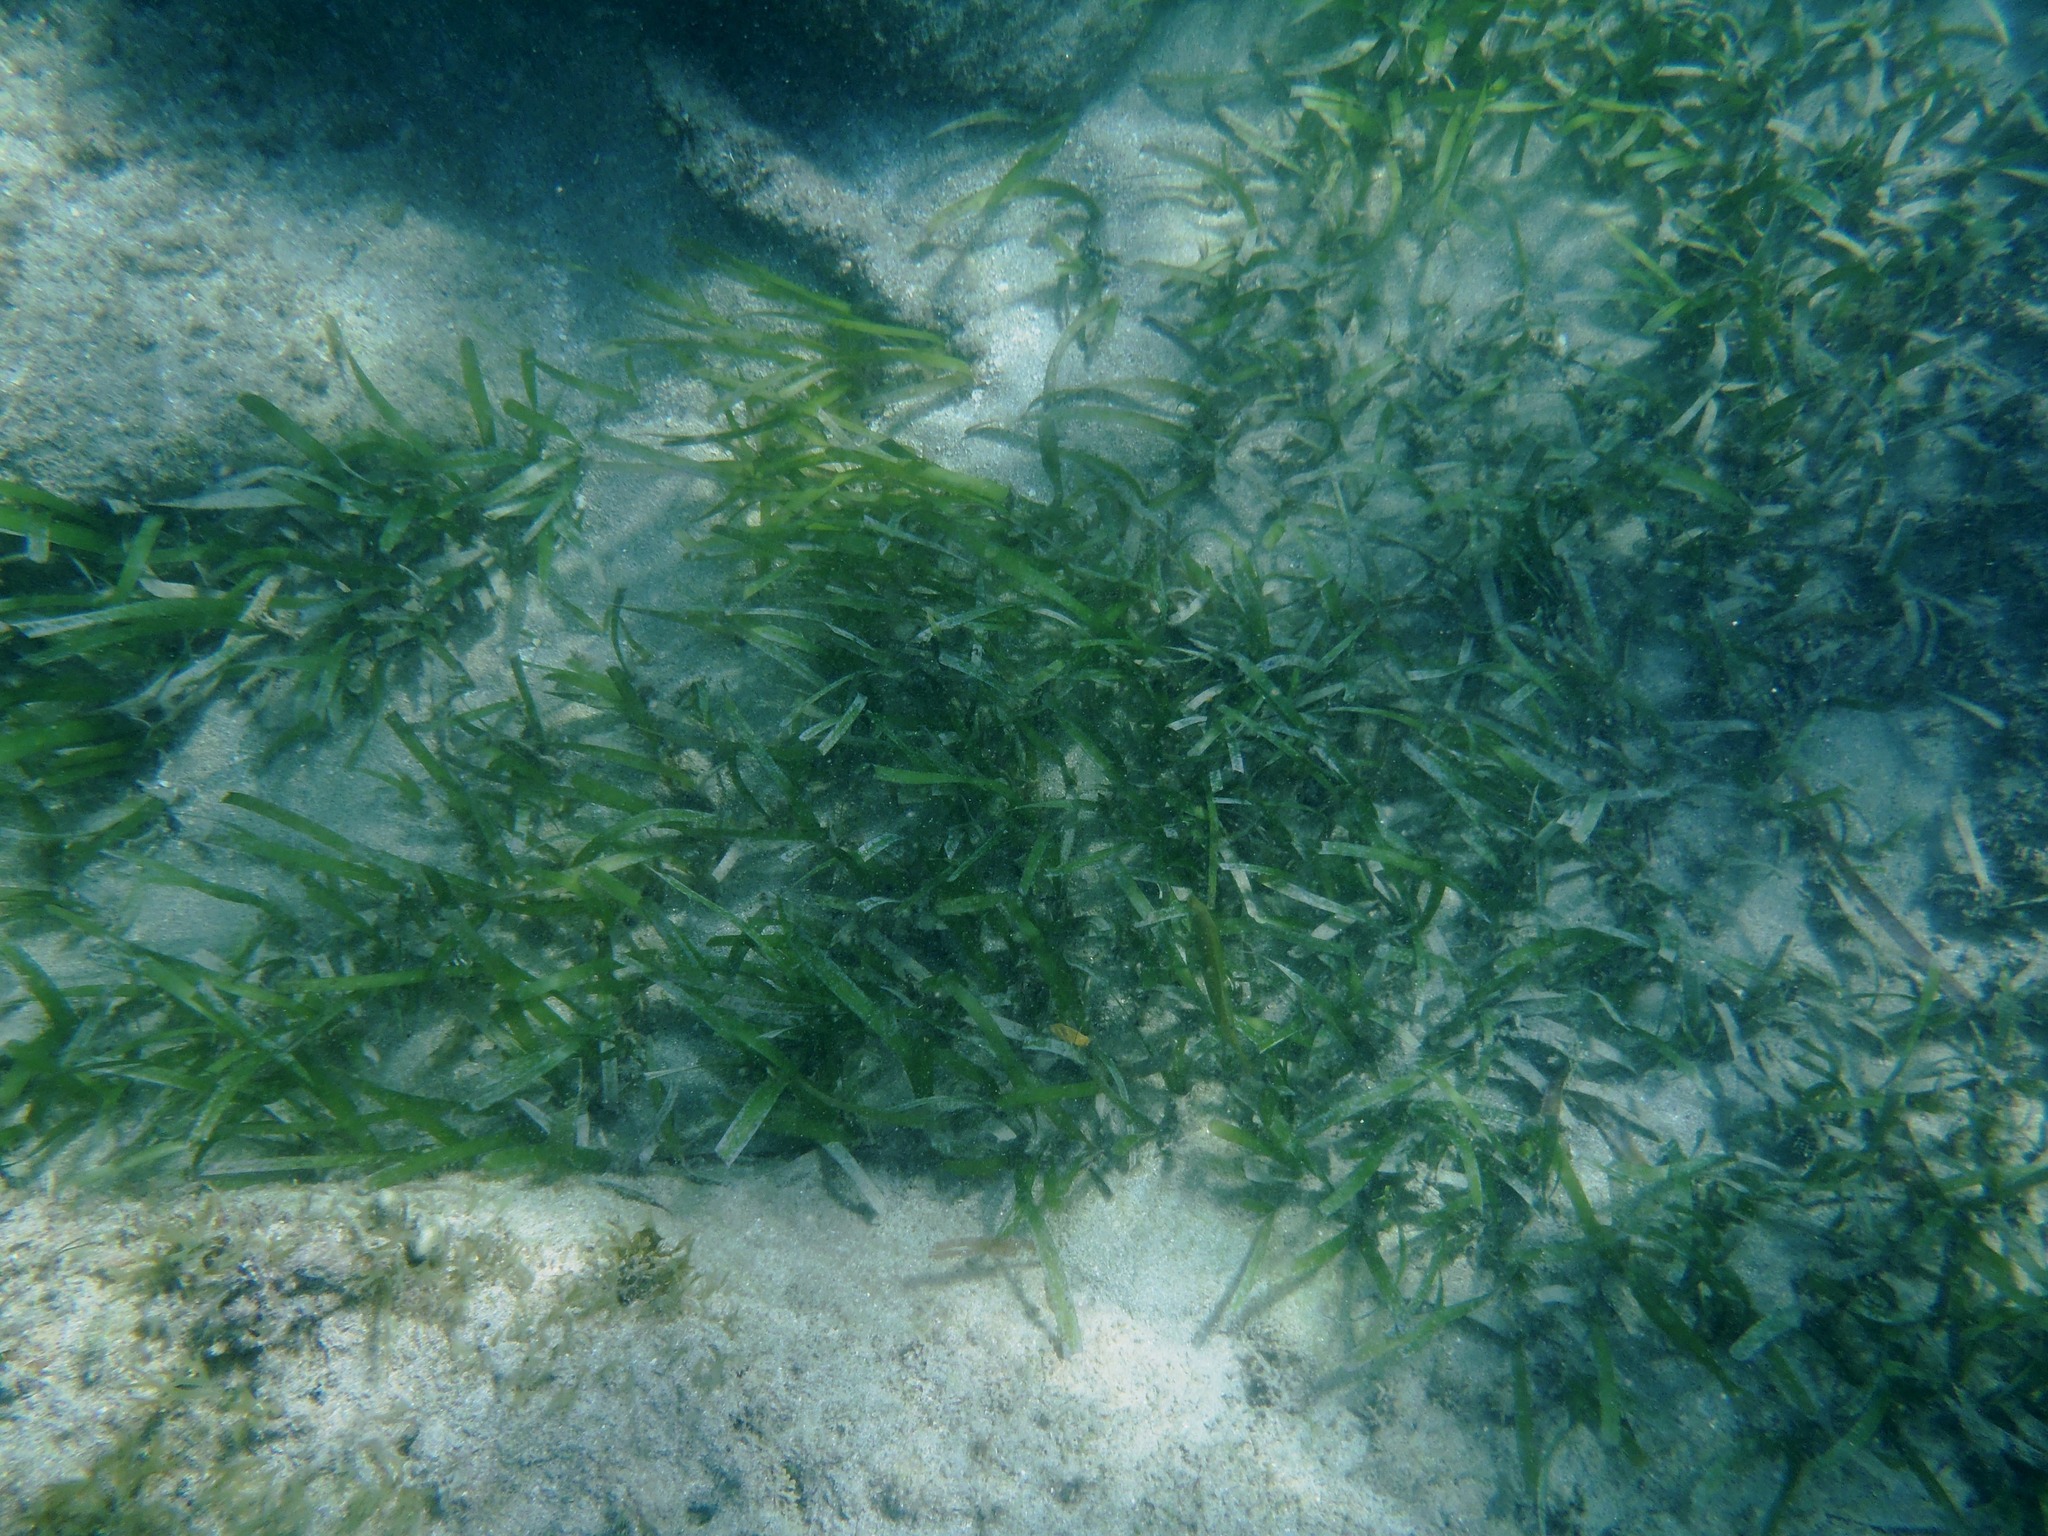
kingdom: Plantae
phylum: Tracheophyta
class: Liliopsida
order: Alismatales
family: Hydrocharitaceae
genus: Thalassia
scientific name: Thalassia testudinum
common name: Species code: tt
